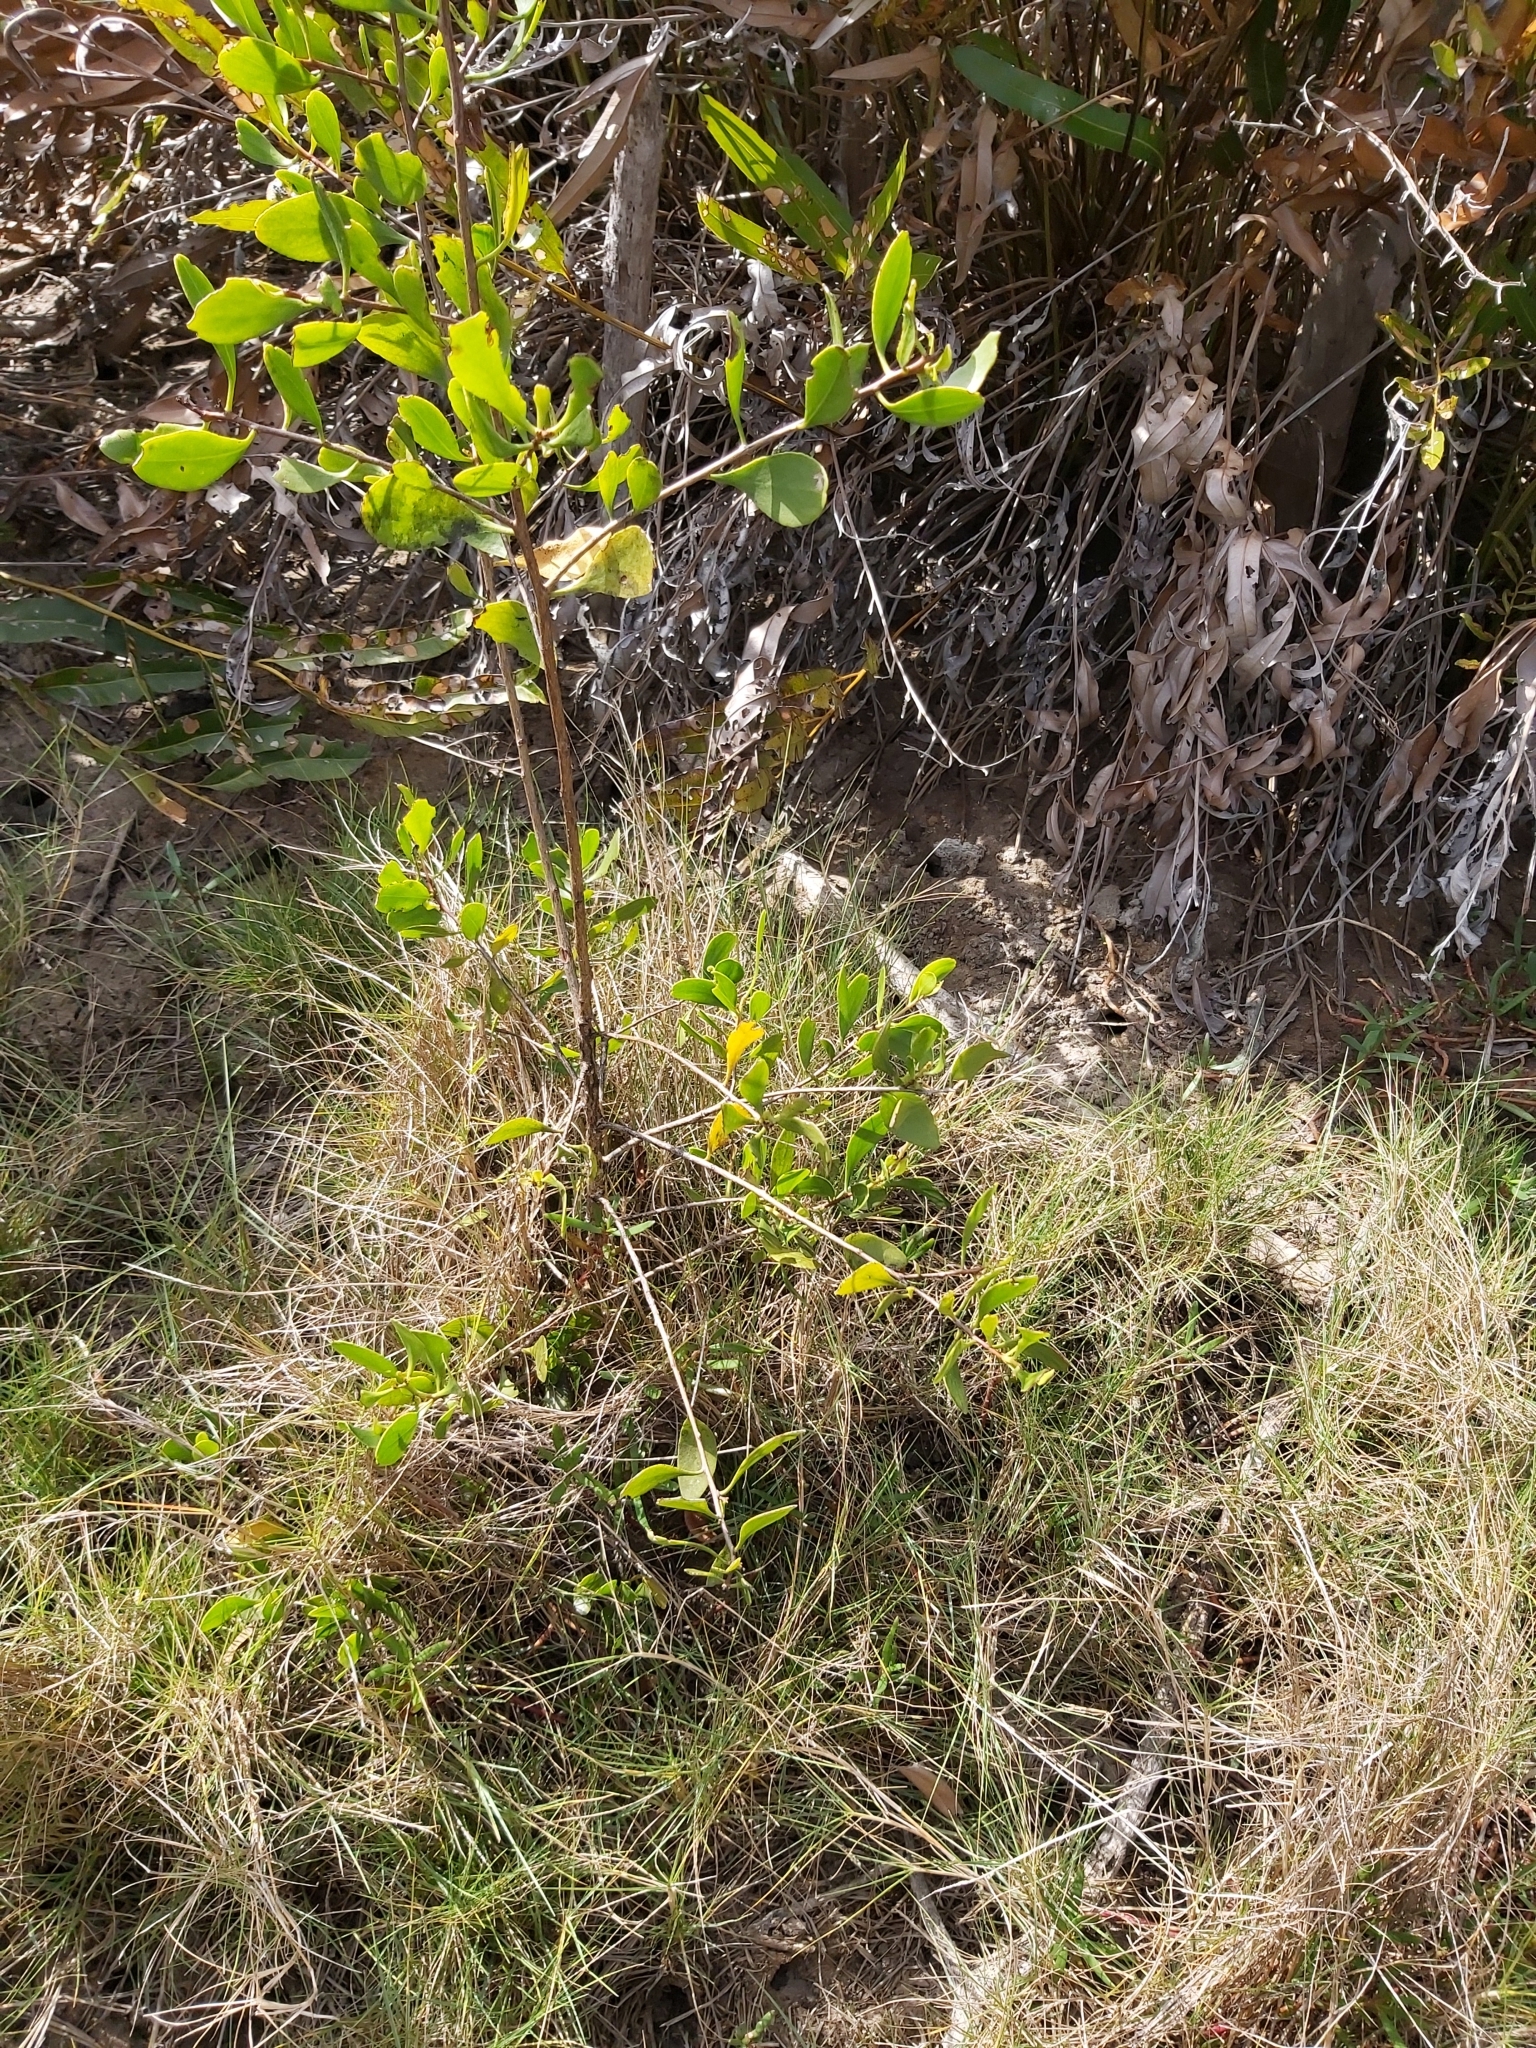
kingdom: Plantae
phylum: Tracheophyta
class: Magnoliopsida
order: Myrtales
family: Combretaceae
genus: Lumnitzera
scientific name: Lumnitzera racemosa
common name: White-flowered black mangrove
